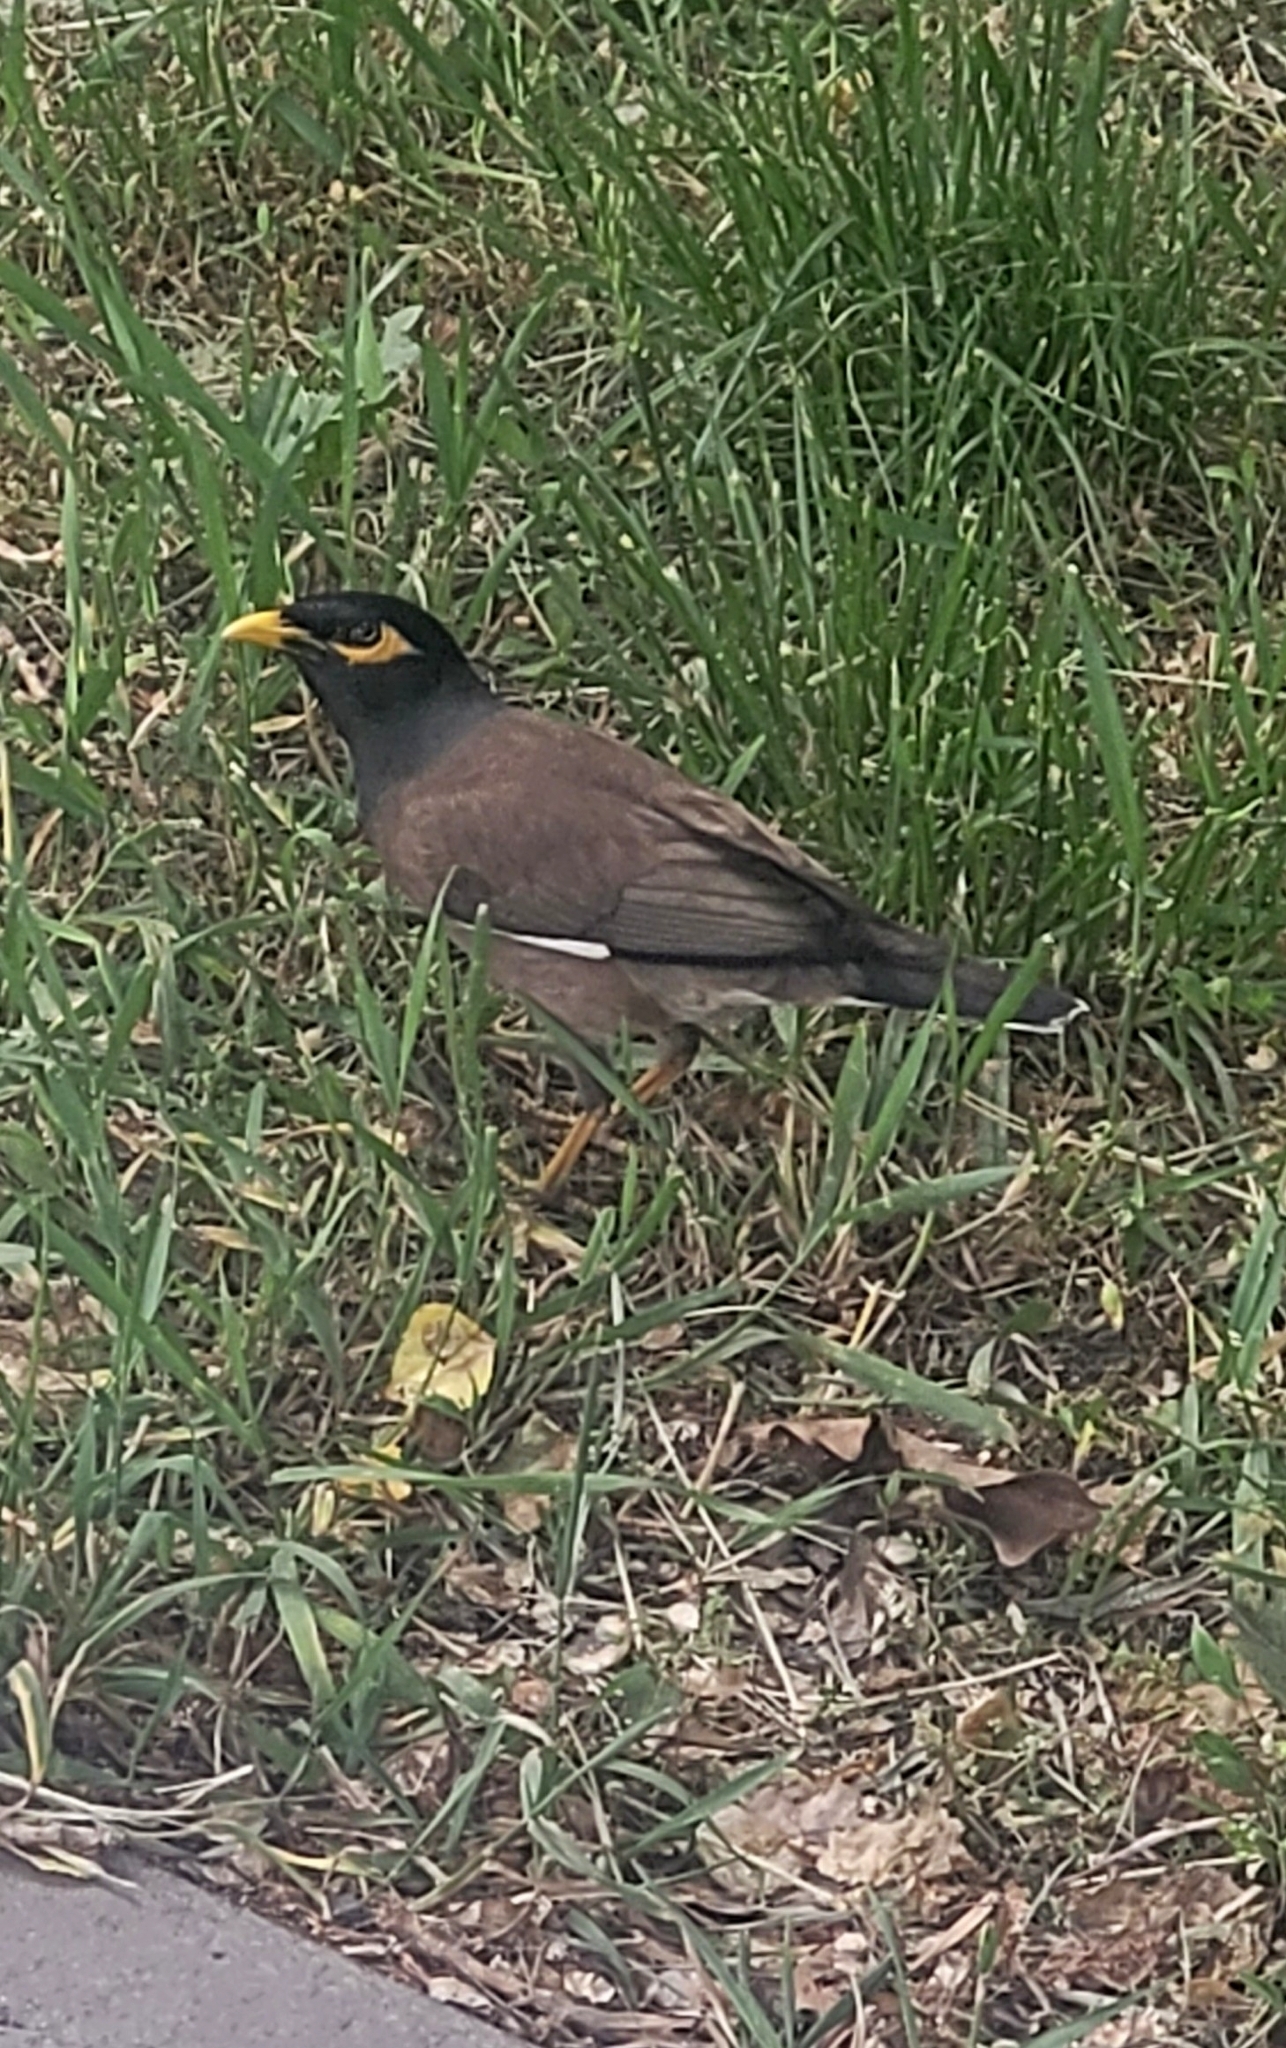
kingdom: Animalia
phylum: Chordata
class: Aves
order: Passeriformes
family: Sturnidae
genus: Acridotheres
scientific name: Acridotheres tristis
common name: Common myna
